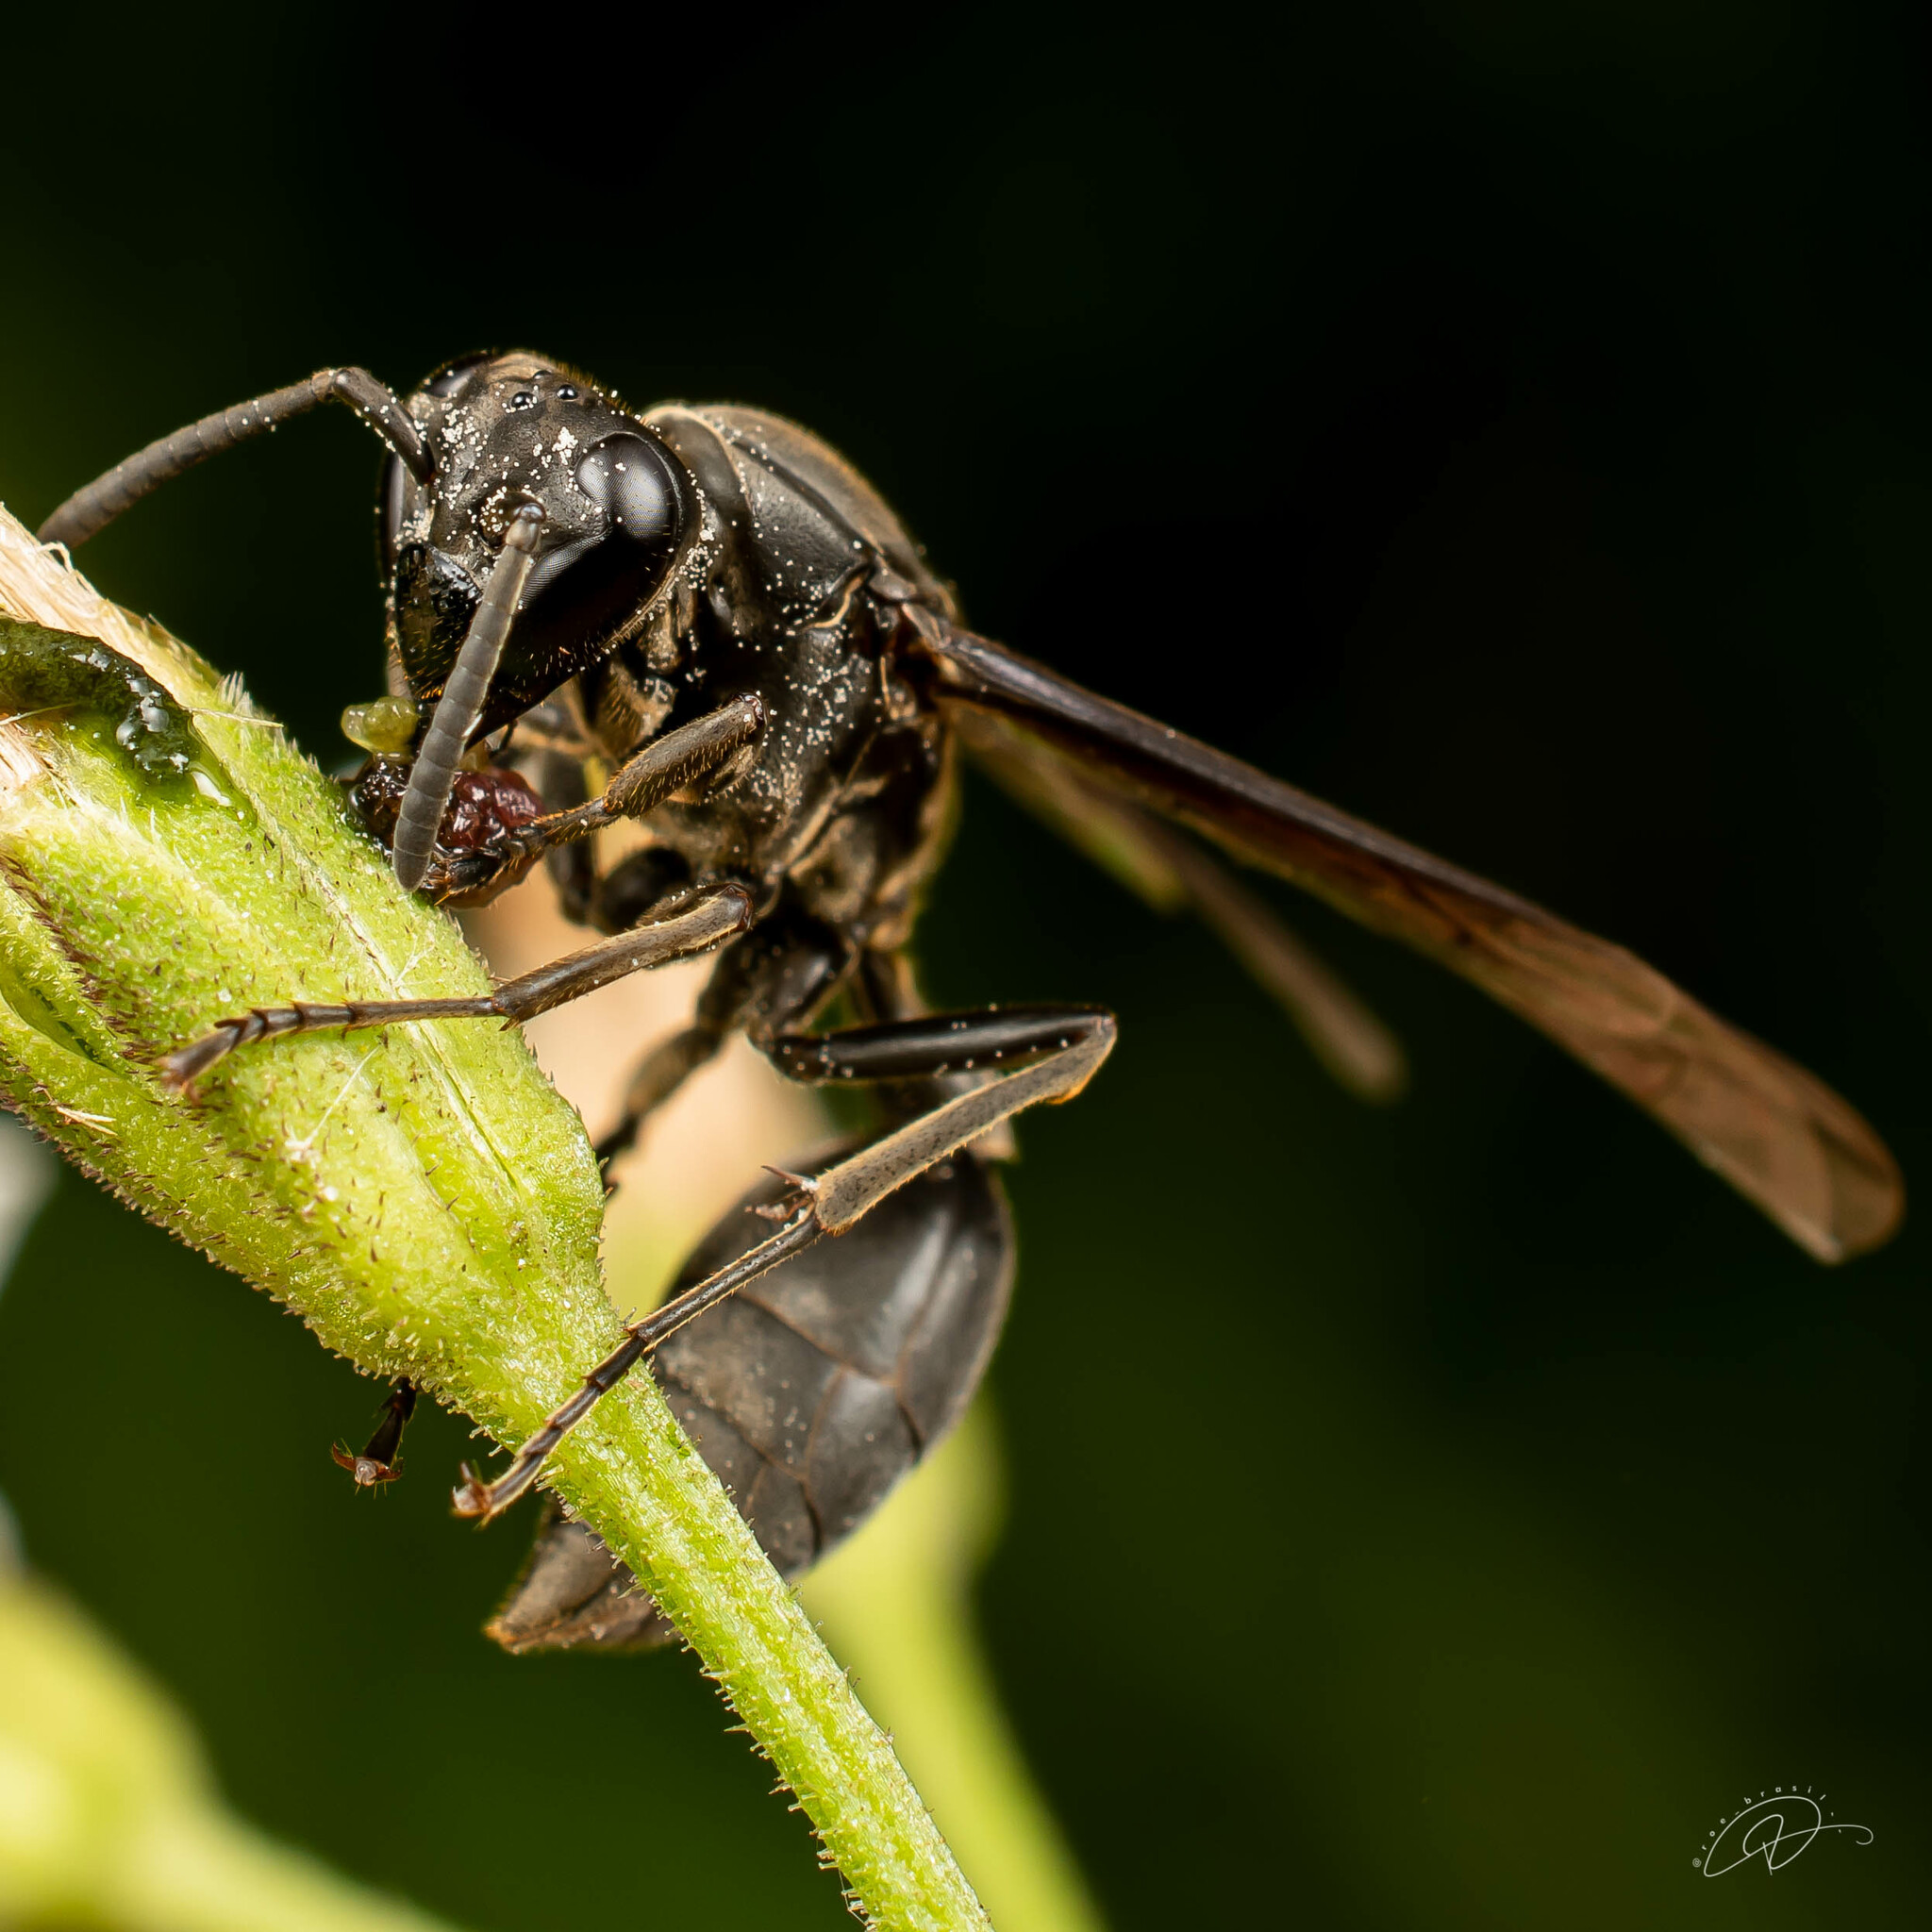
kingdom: Animalia
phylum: Arthropoda
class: Insecta
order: Hymenoptera
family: Eumenidae
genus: Polybia
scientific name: Polybia ignobilis
